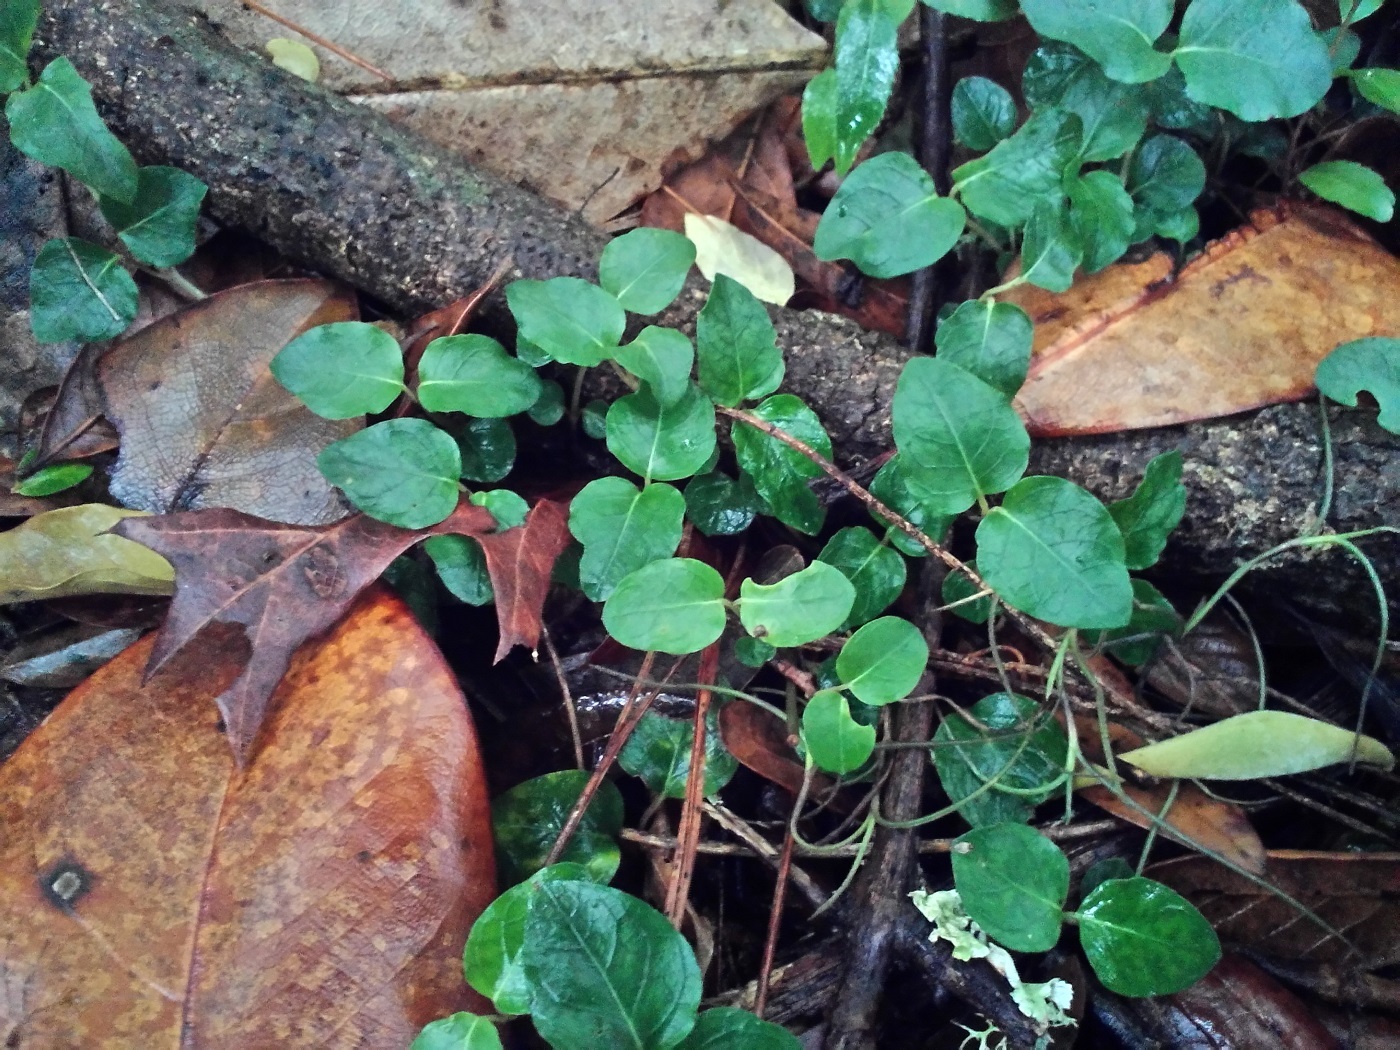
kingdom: Plantae
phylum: Tracheophyta
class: Magnoliopsida
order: Gentianales
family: Rubiaceae
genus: Mitchella
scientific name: Mitchella repens
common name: Partridge-berry
